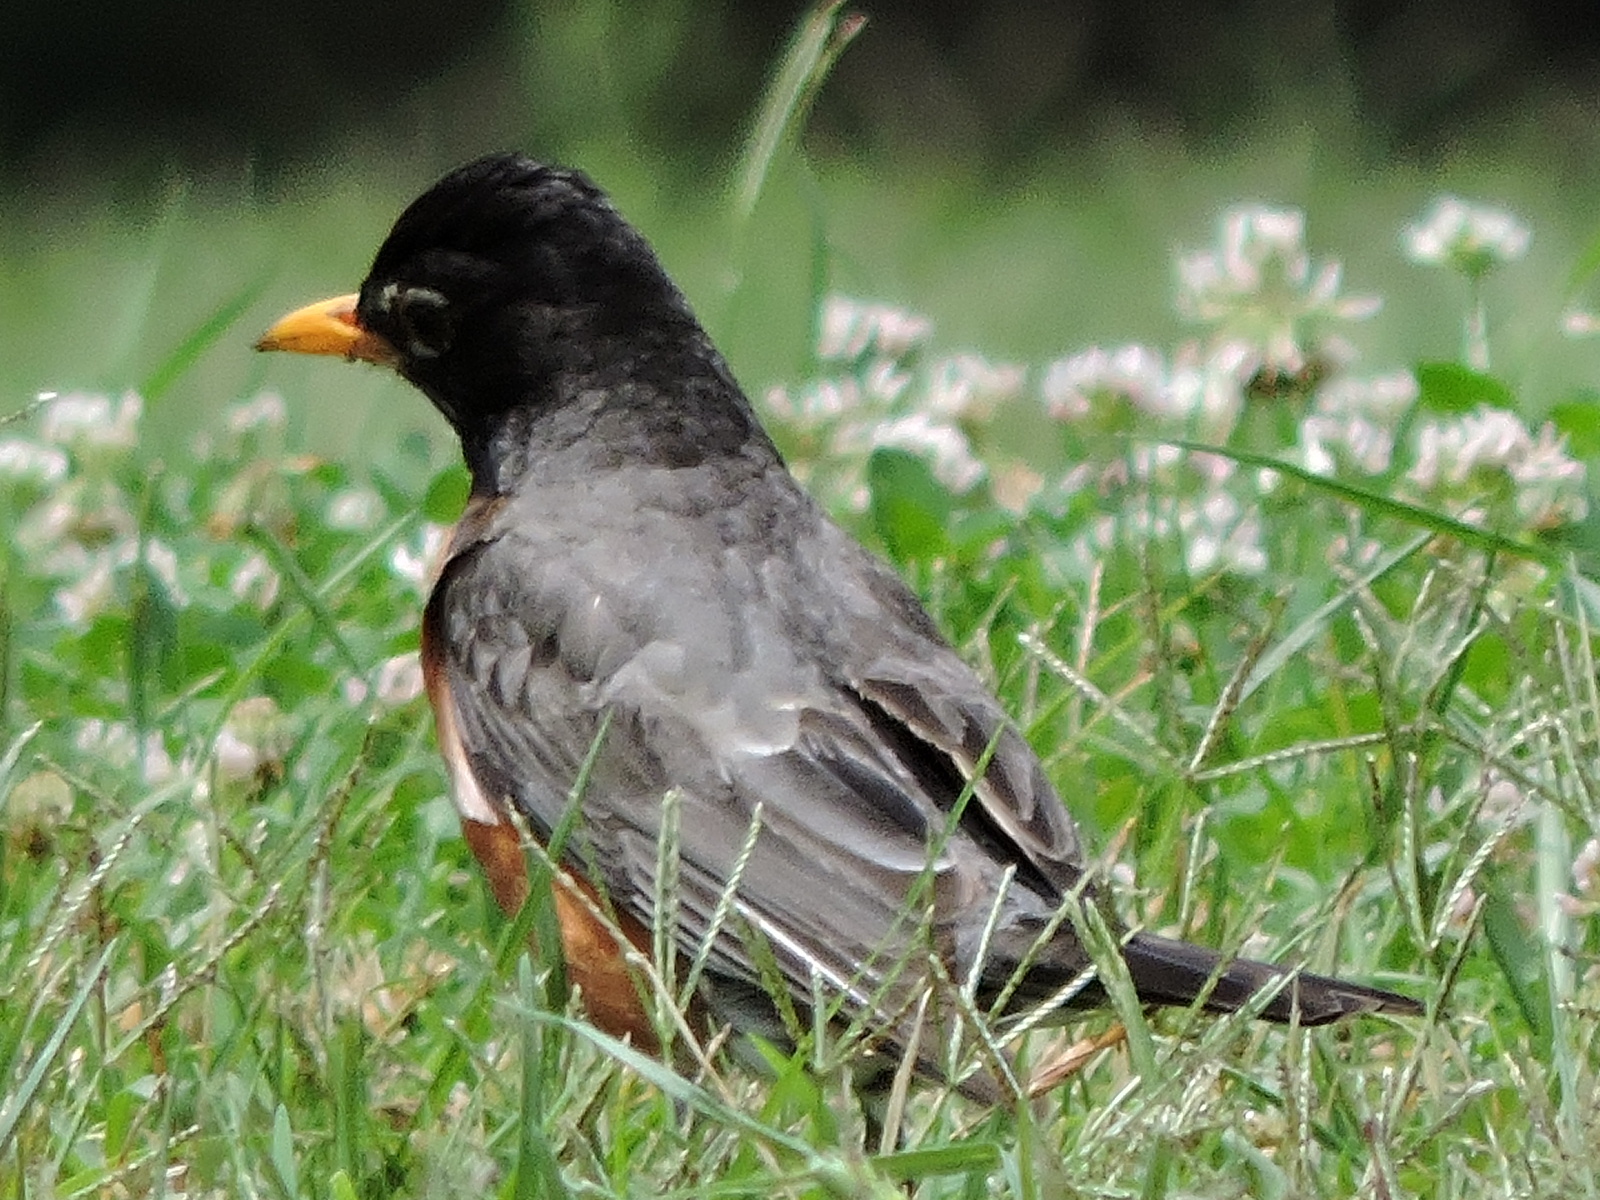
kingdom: Animalia
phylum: Chordata
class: Aves
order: Passeriformes
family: Turdidae
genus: Turdus
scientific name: Turdus migratorius
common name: American robin
